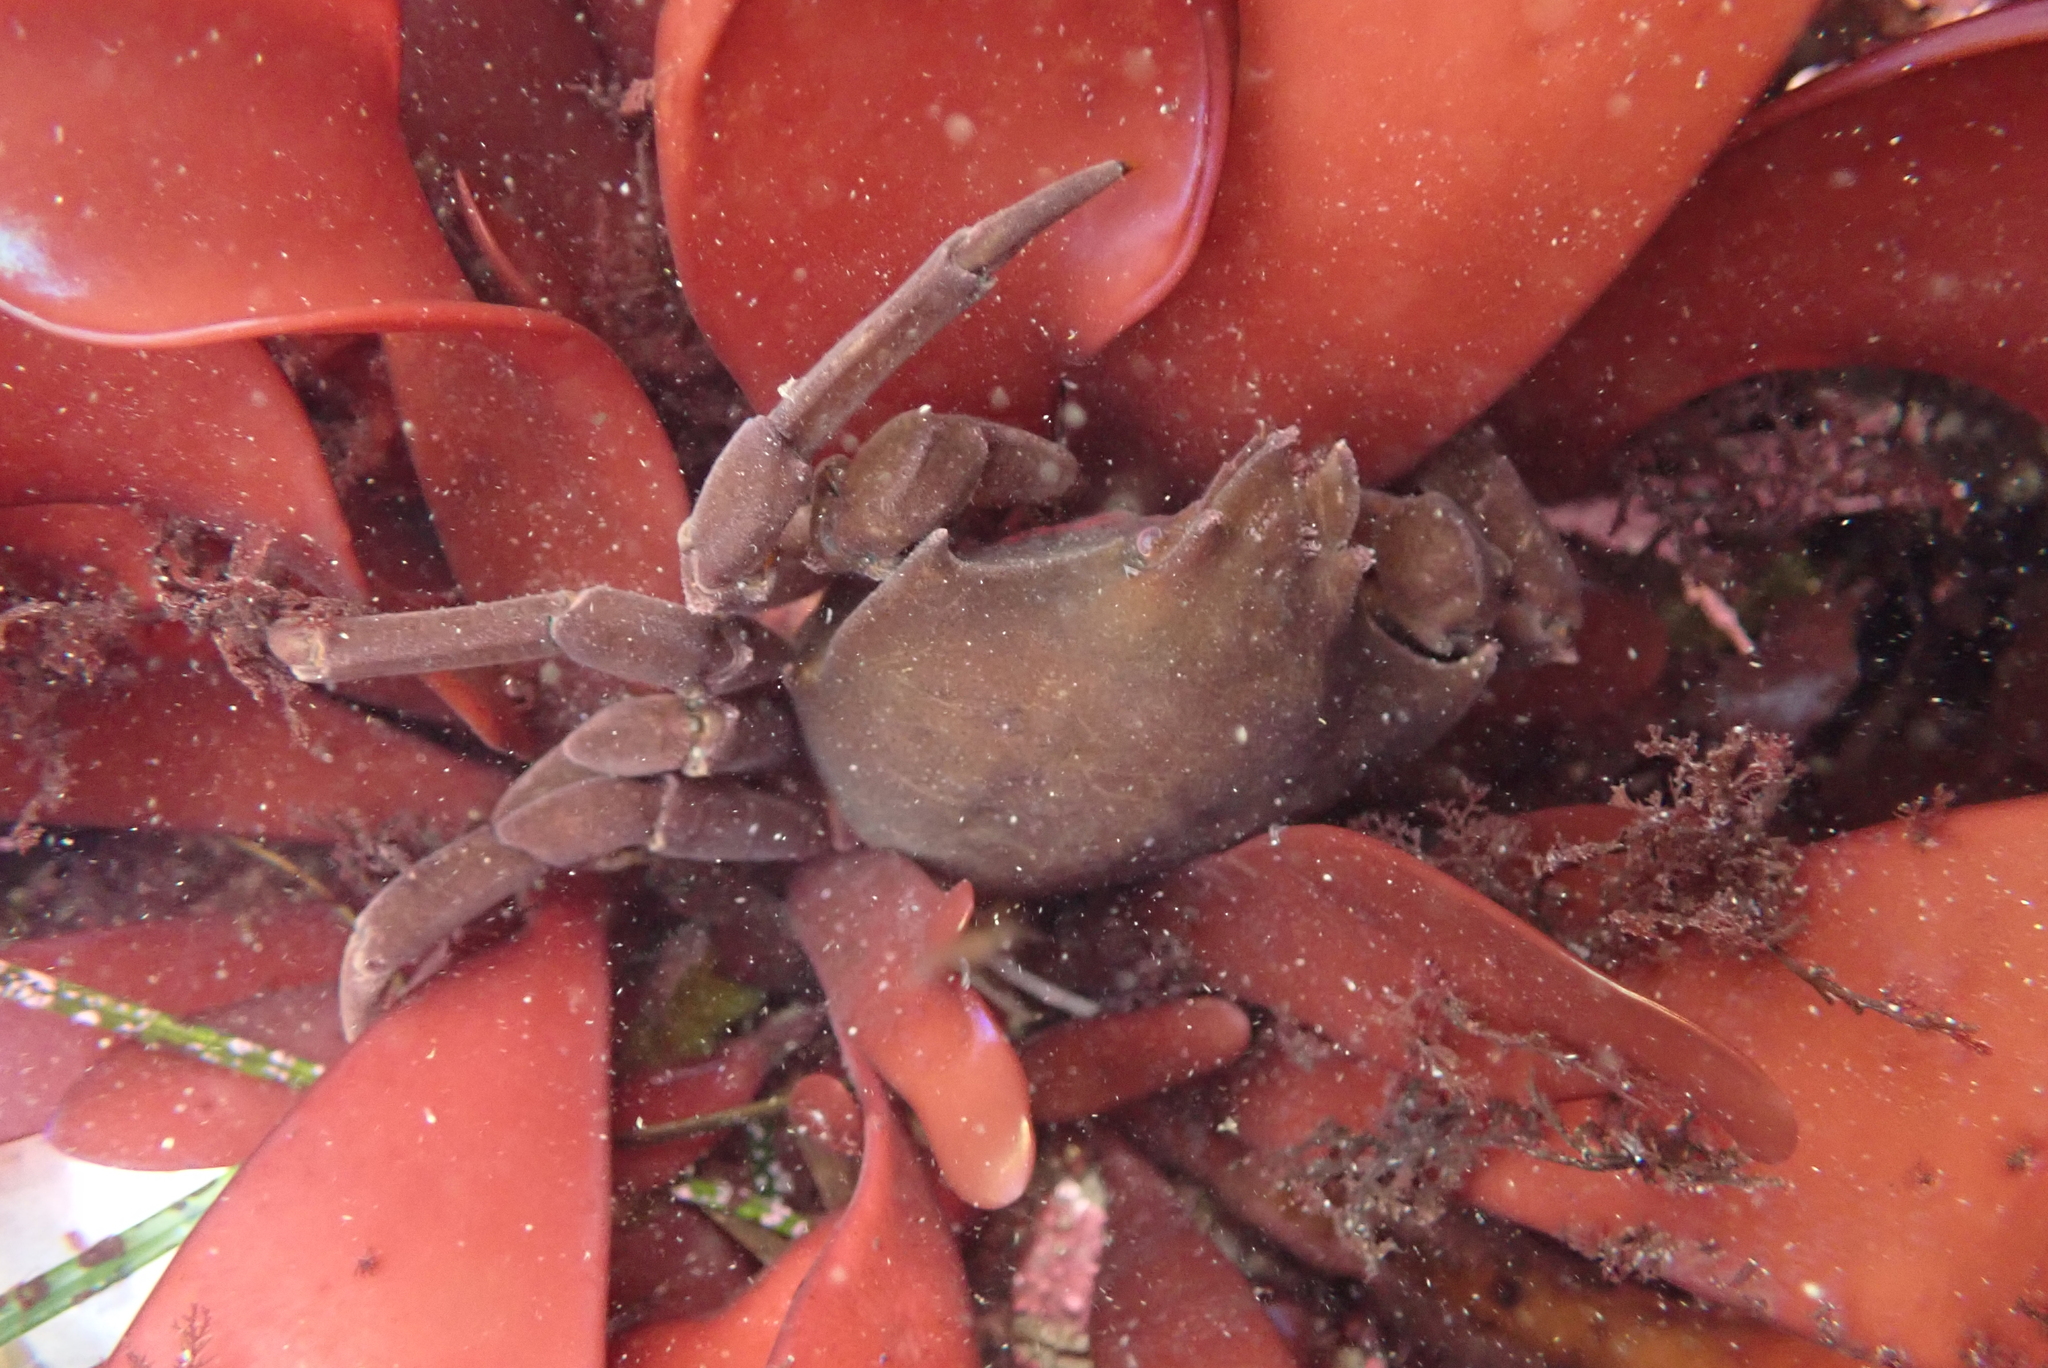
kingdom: Animalia
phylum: Arthropoda
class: Malacostraca
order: Decapoda
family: Epialtidae
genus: Pugettia
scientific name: Pugettia producta
